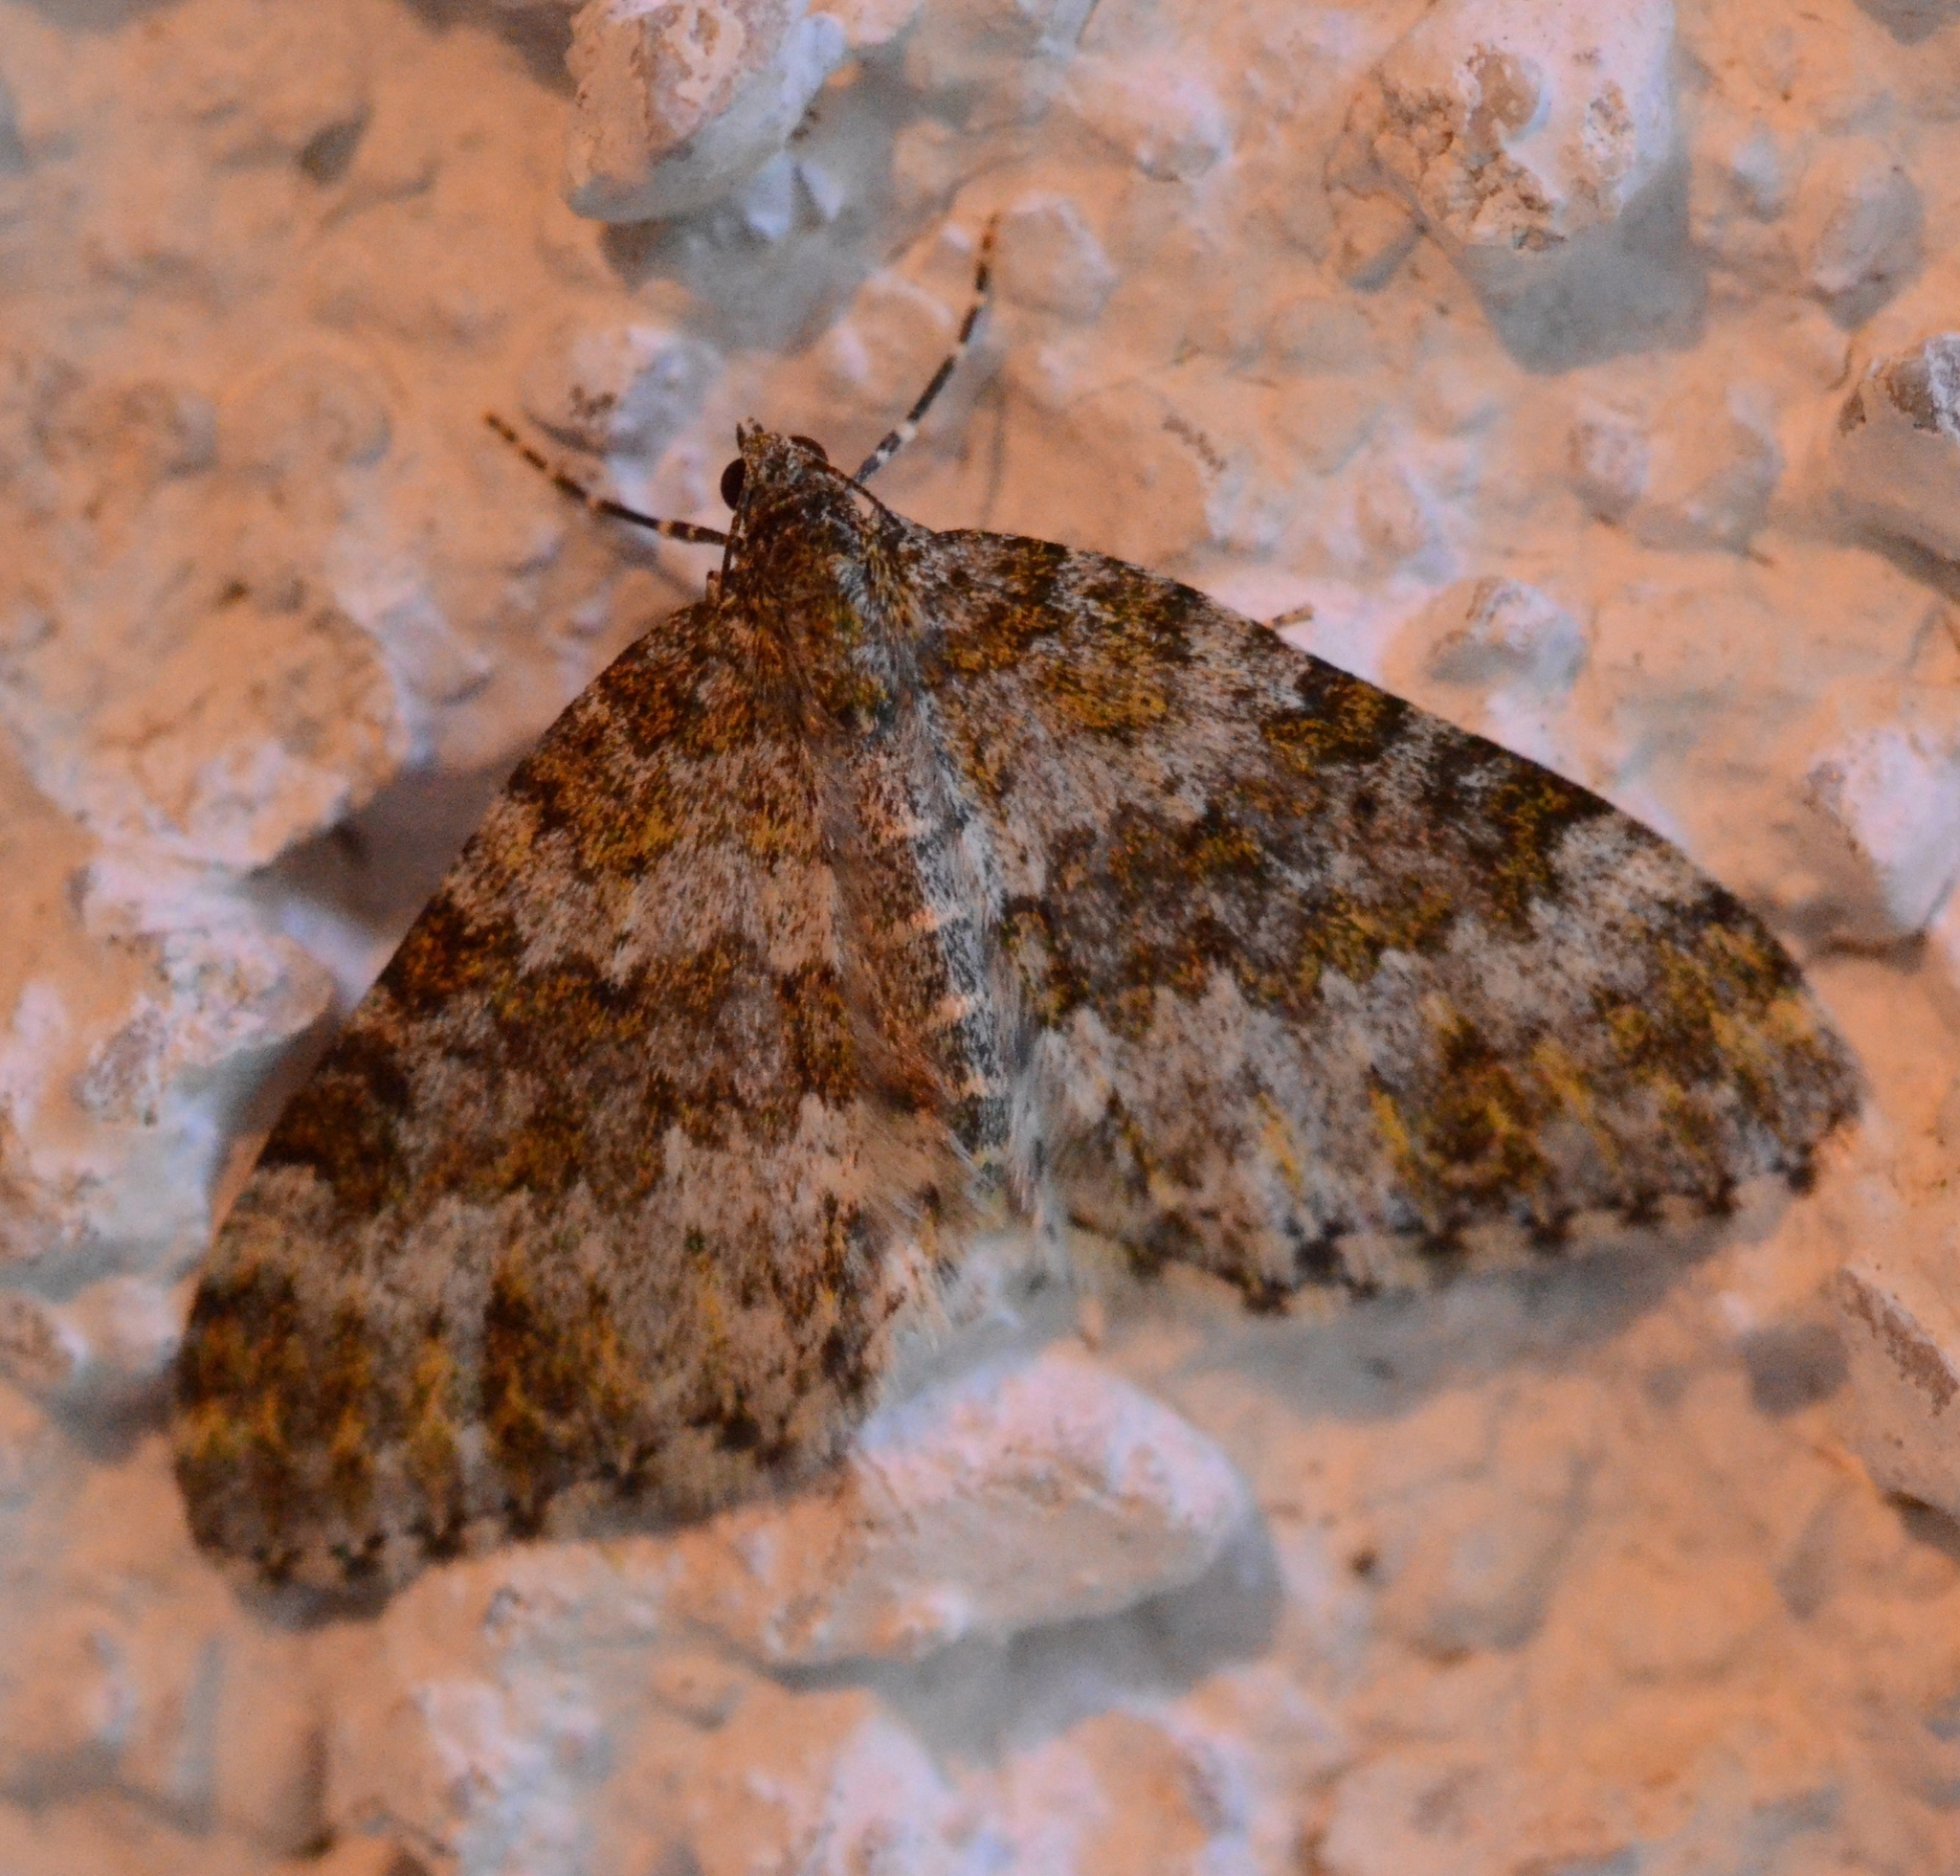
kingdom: Animalia
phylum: Arthropoda
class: Insecta
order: Lepidoptera
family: Geometridae
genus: Entephria
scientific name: Entephria flavicinctata
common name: Yellow-ringed carpet
